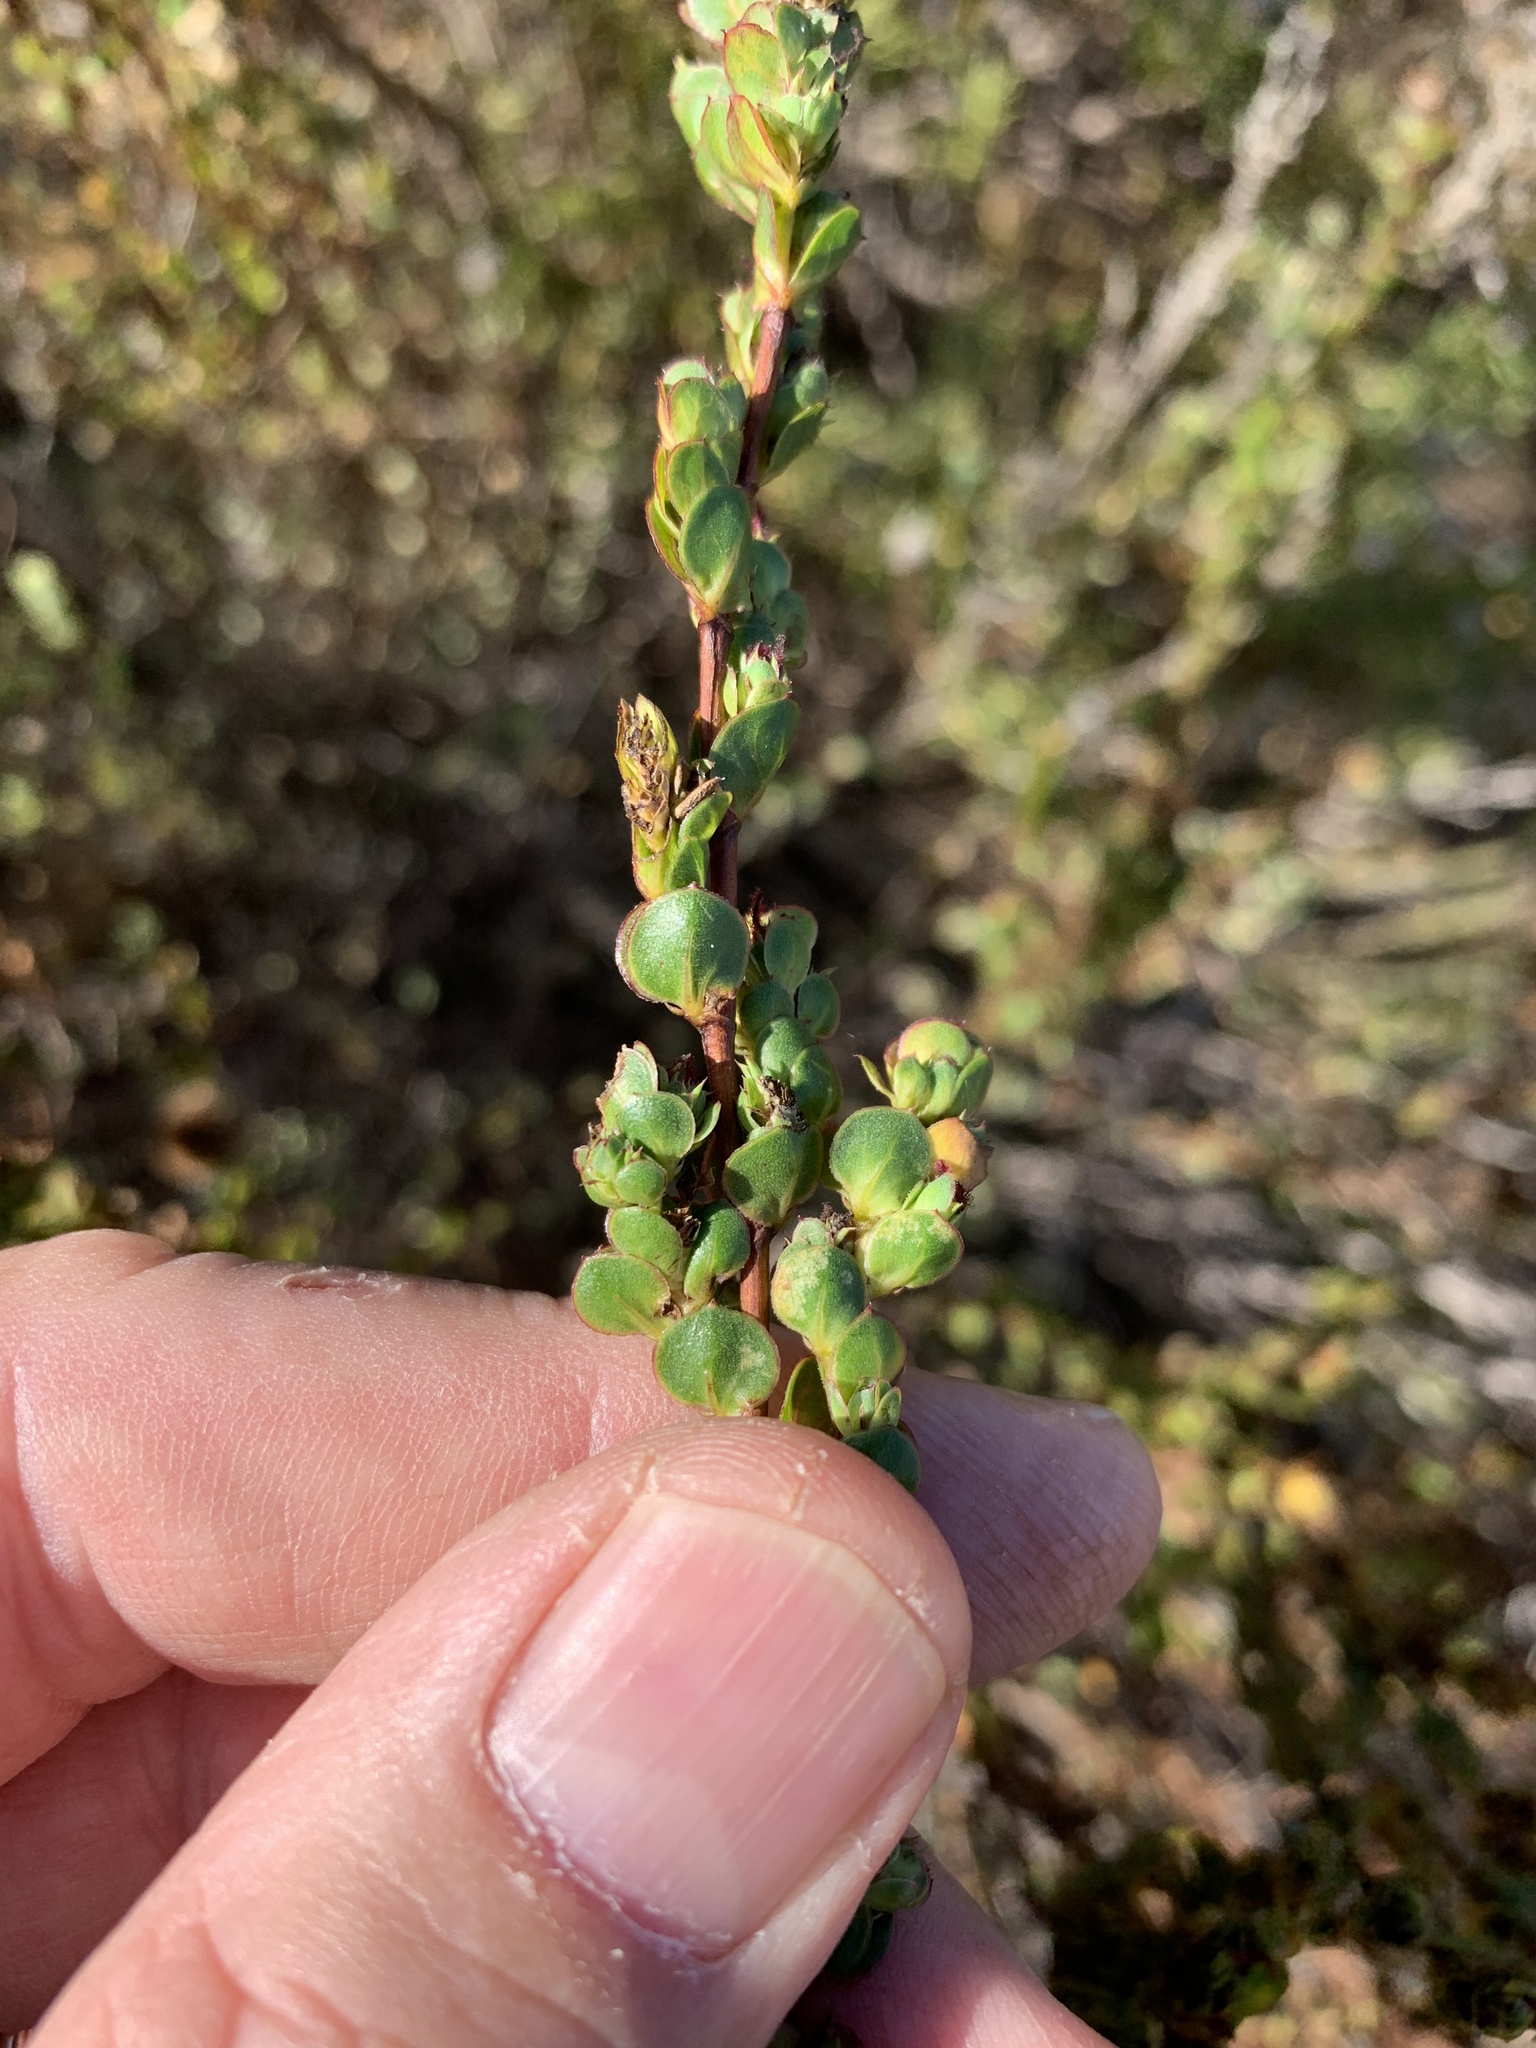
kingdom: Plantae
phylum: Tracheophyta
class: Magnoliopsida
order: Rosales
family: Rosaceae
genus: Cliffortia
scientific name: Cliffortia phyllanthoides
